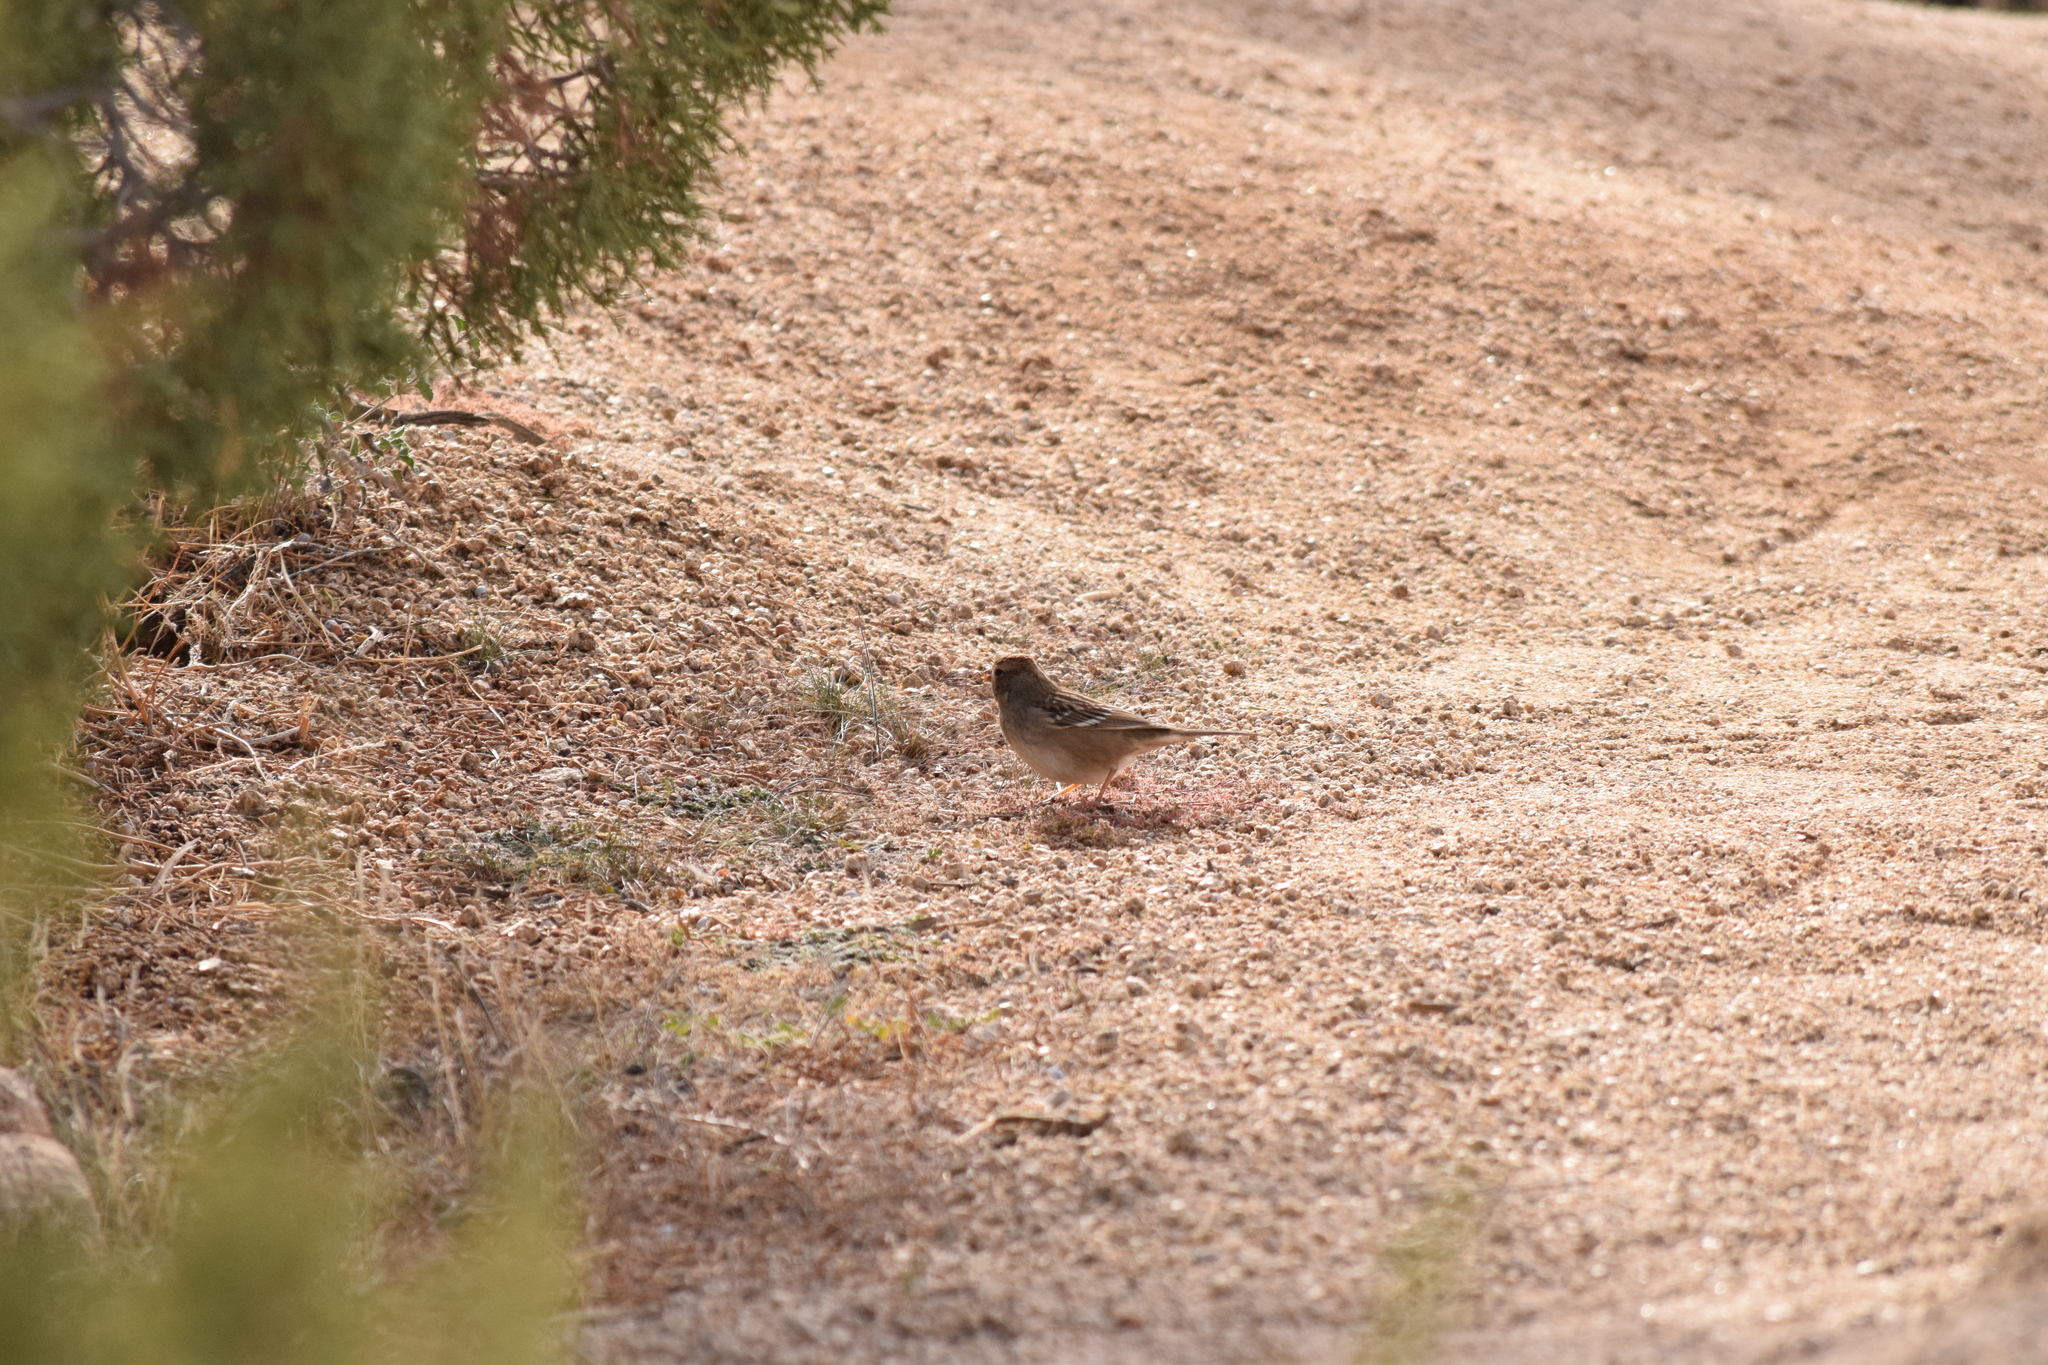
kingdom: Animalia
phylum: Chordata
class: Aves
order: Passeriformes
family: Passerellidae
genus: Zonotrichia
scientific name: Zonotrichia leucophrys
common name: White-crowned sparrow
